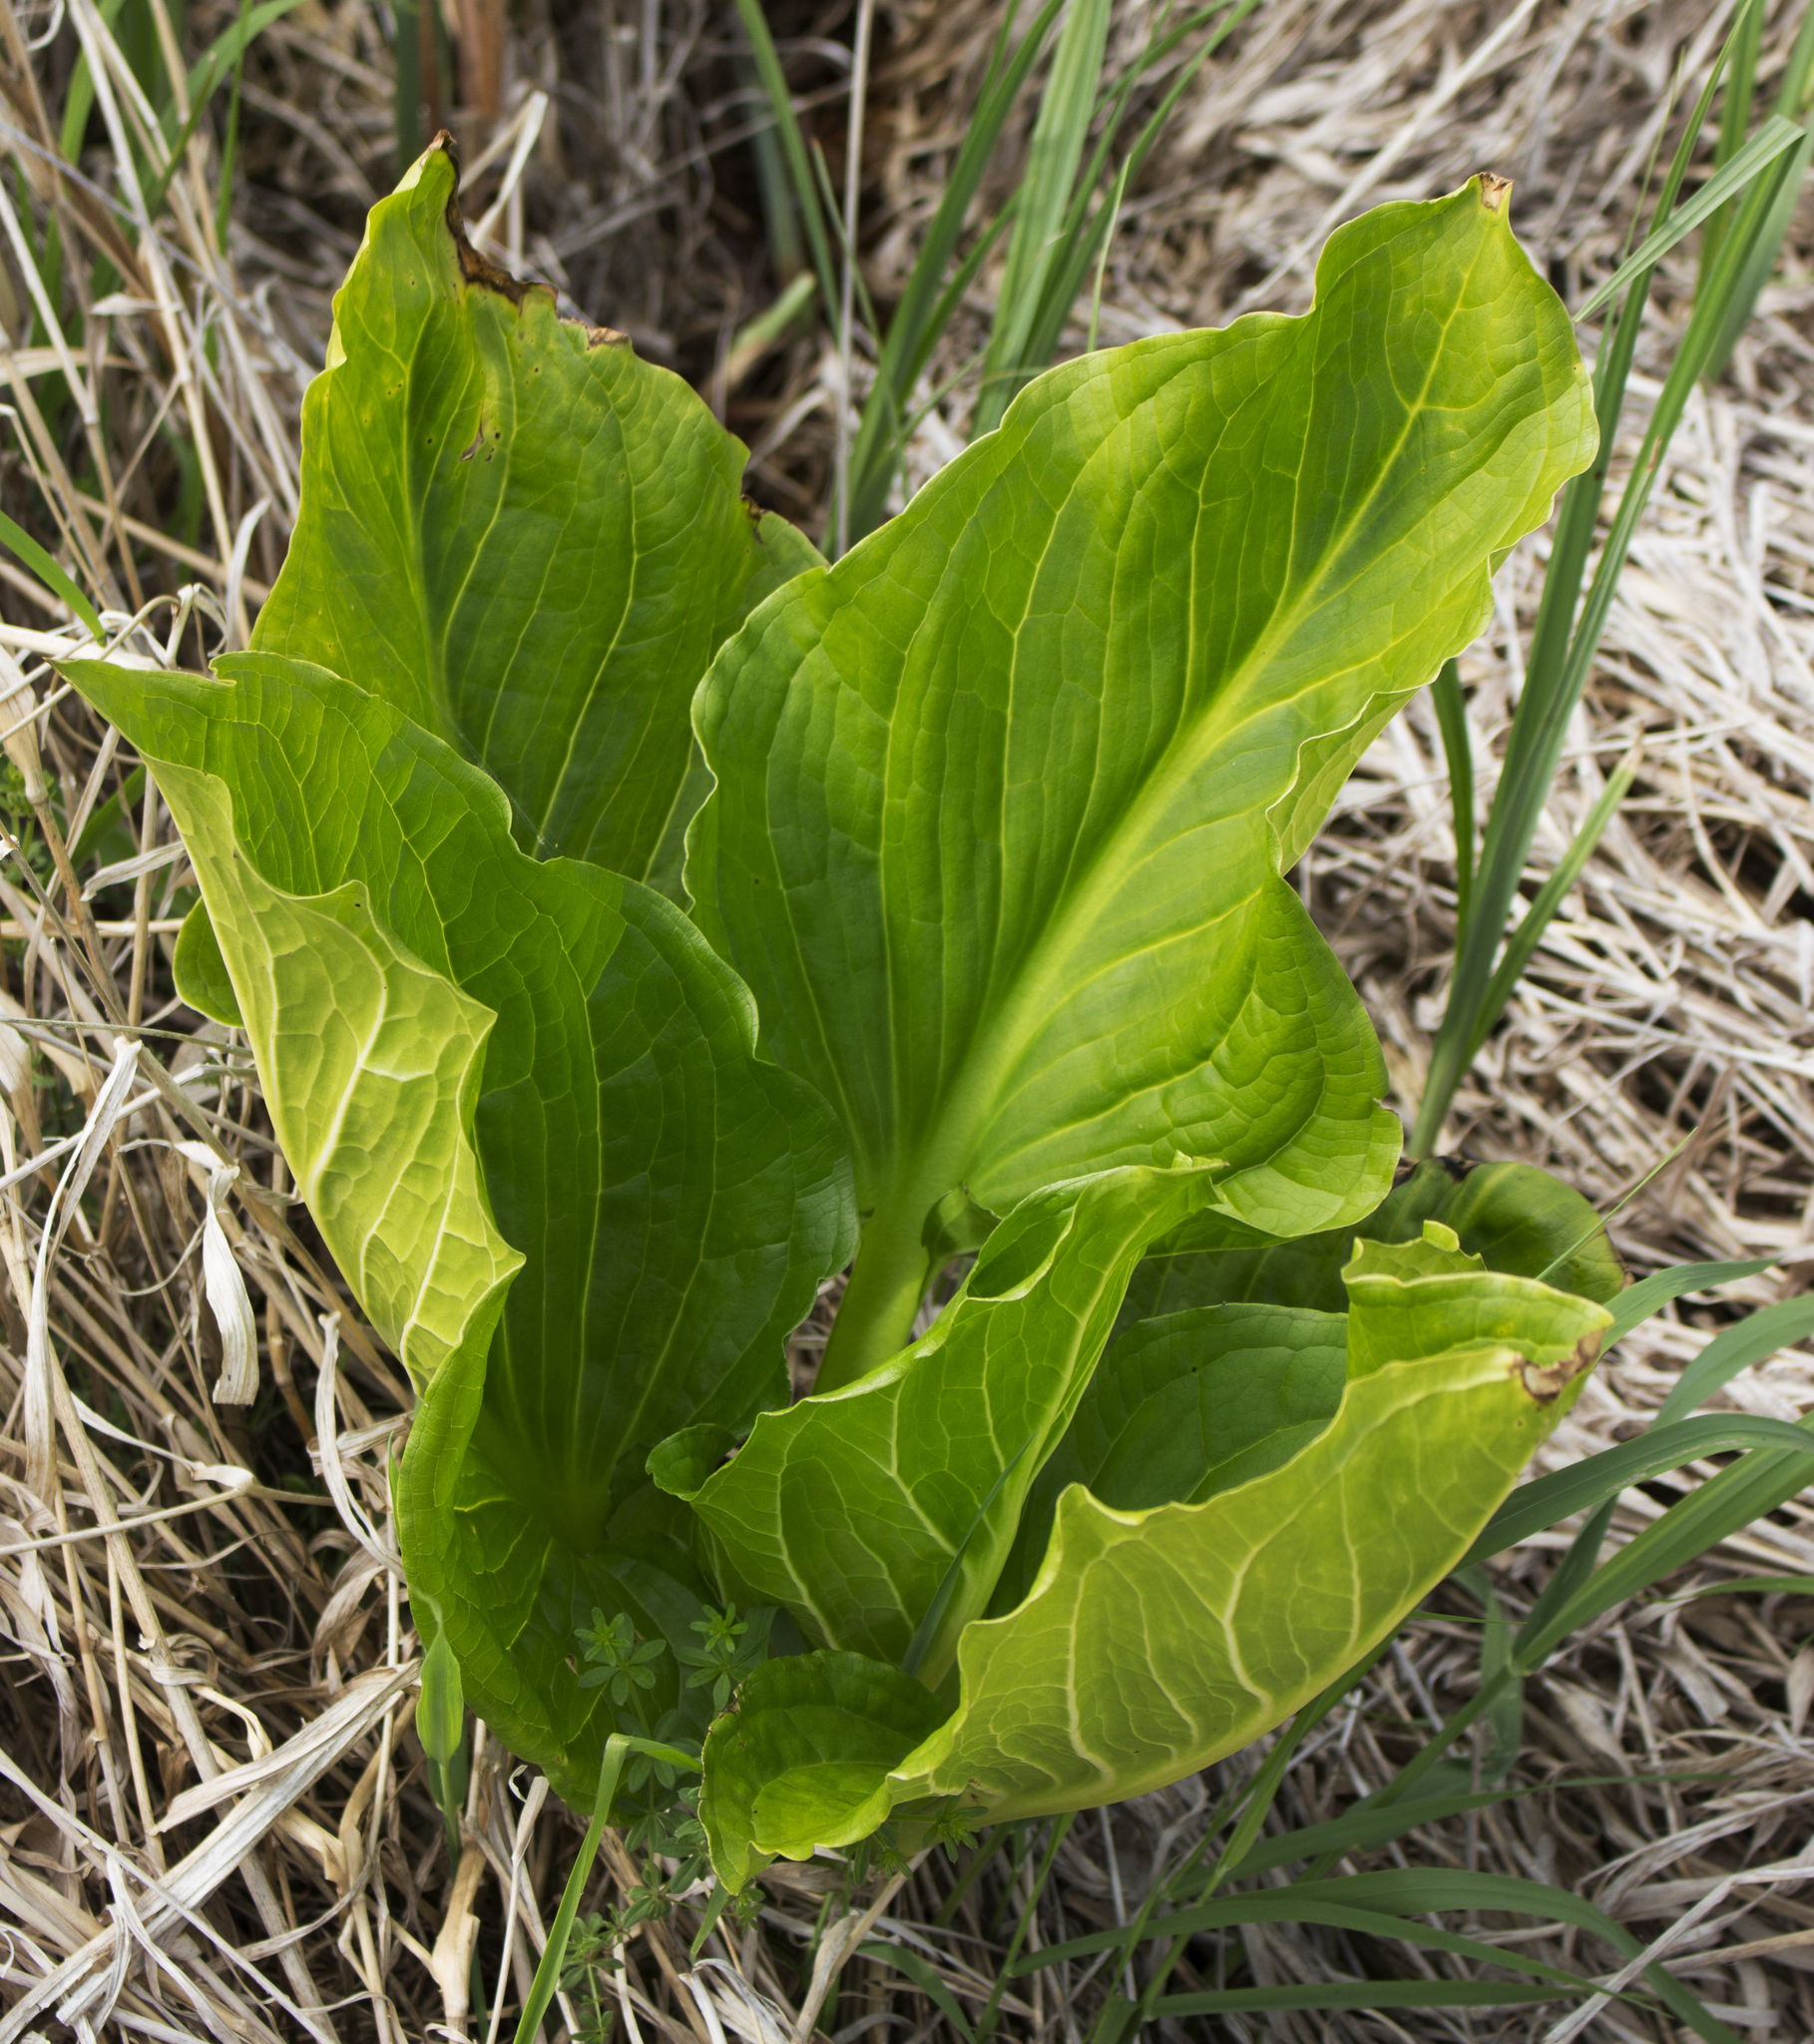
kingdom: Plantae
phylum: Tracheophyta
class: Liliopsida
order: Alismatales
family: Araceae
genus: Symplocarpus
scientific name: Symplocarpus foetidus
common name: Eastern skunk cabbage
